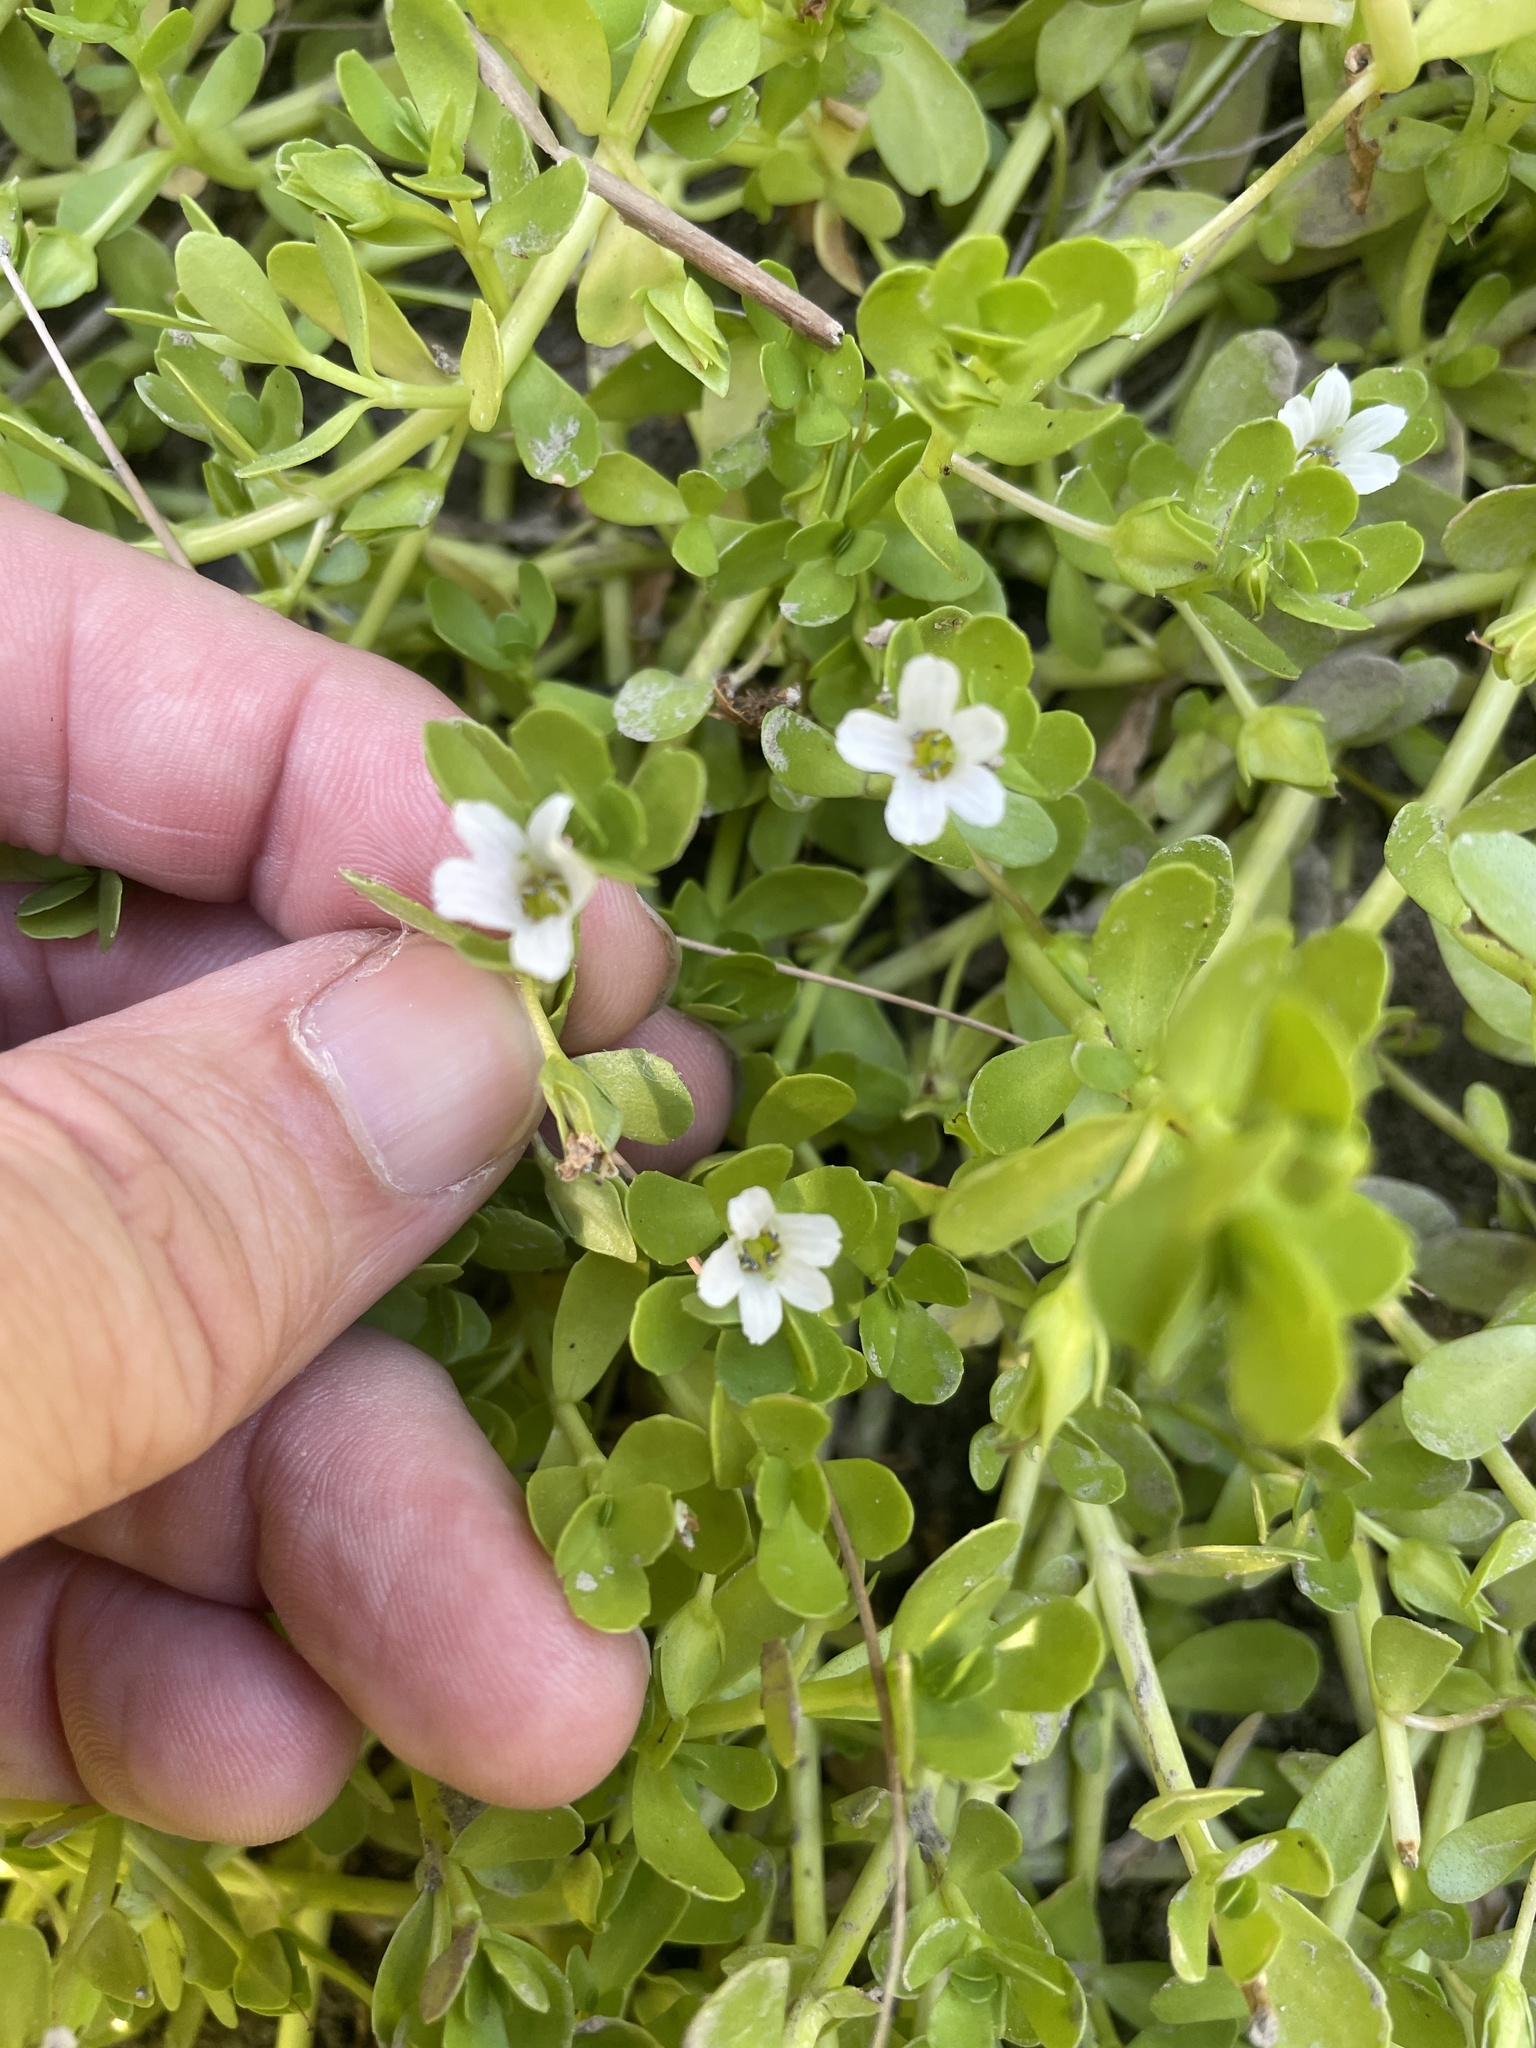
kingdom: Plantae
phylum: Tracheophyta
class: Magnoliopsida
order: Lamiales
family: Plantaginaceae
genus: Bacopa
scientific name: Bacopa monnieri
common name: Indian-pennywort
